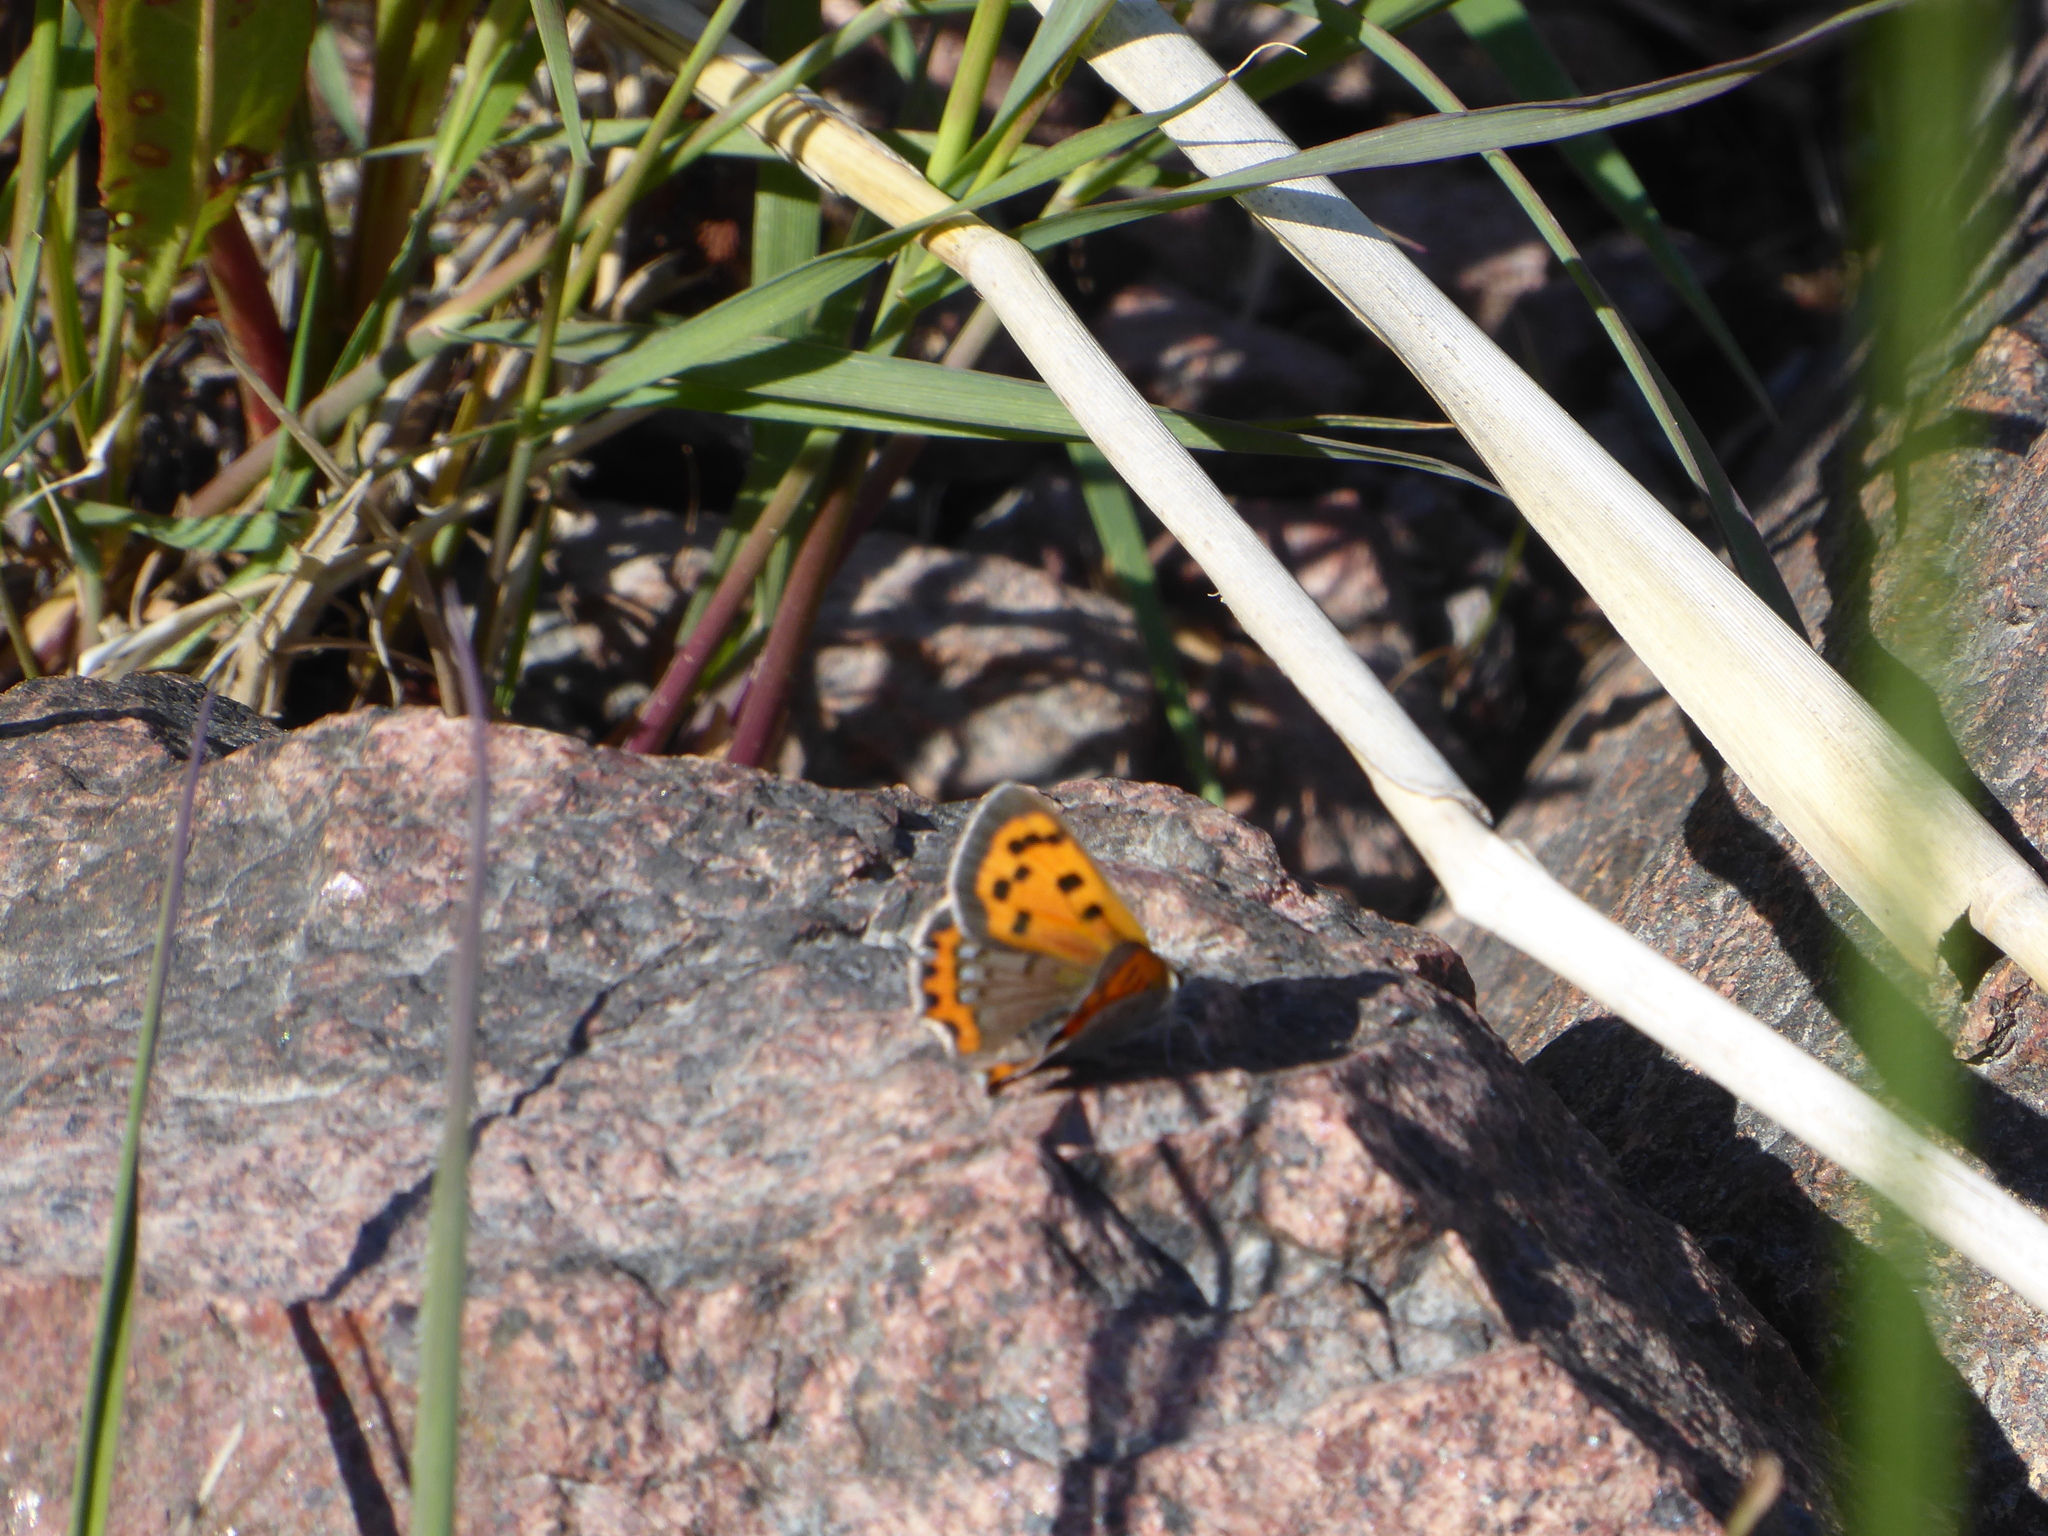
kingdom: Animalia
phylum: Arthropoda
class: Insecta
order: Lepidoptera
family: Lycaenidae
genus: Lycaena
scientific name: Lycaena phlaeas
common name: Small copper
